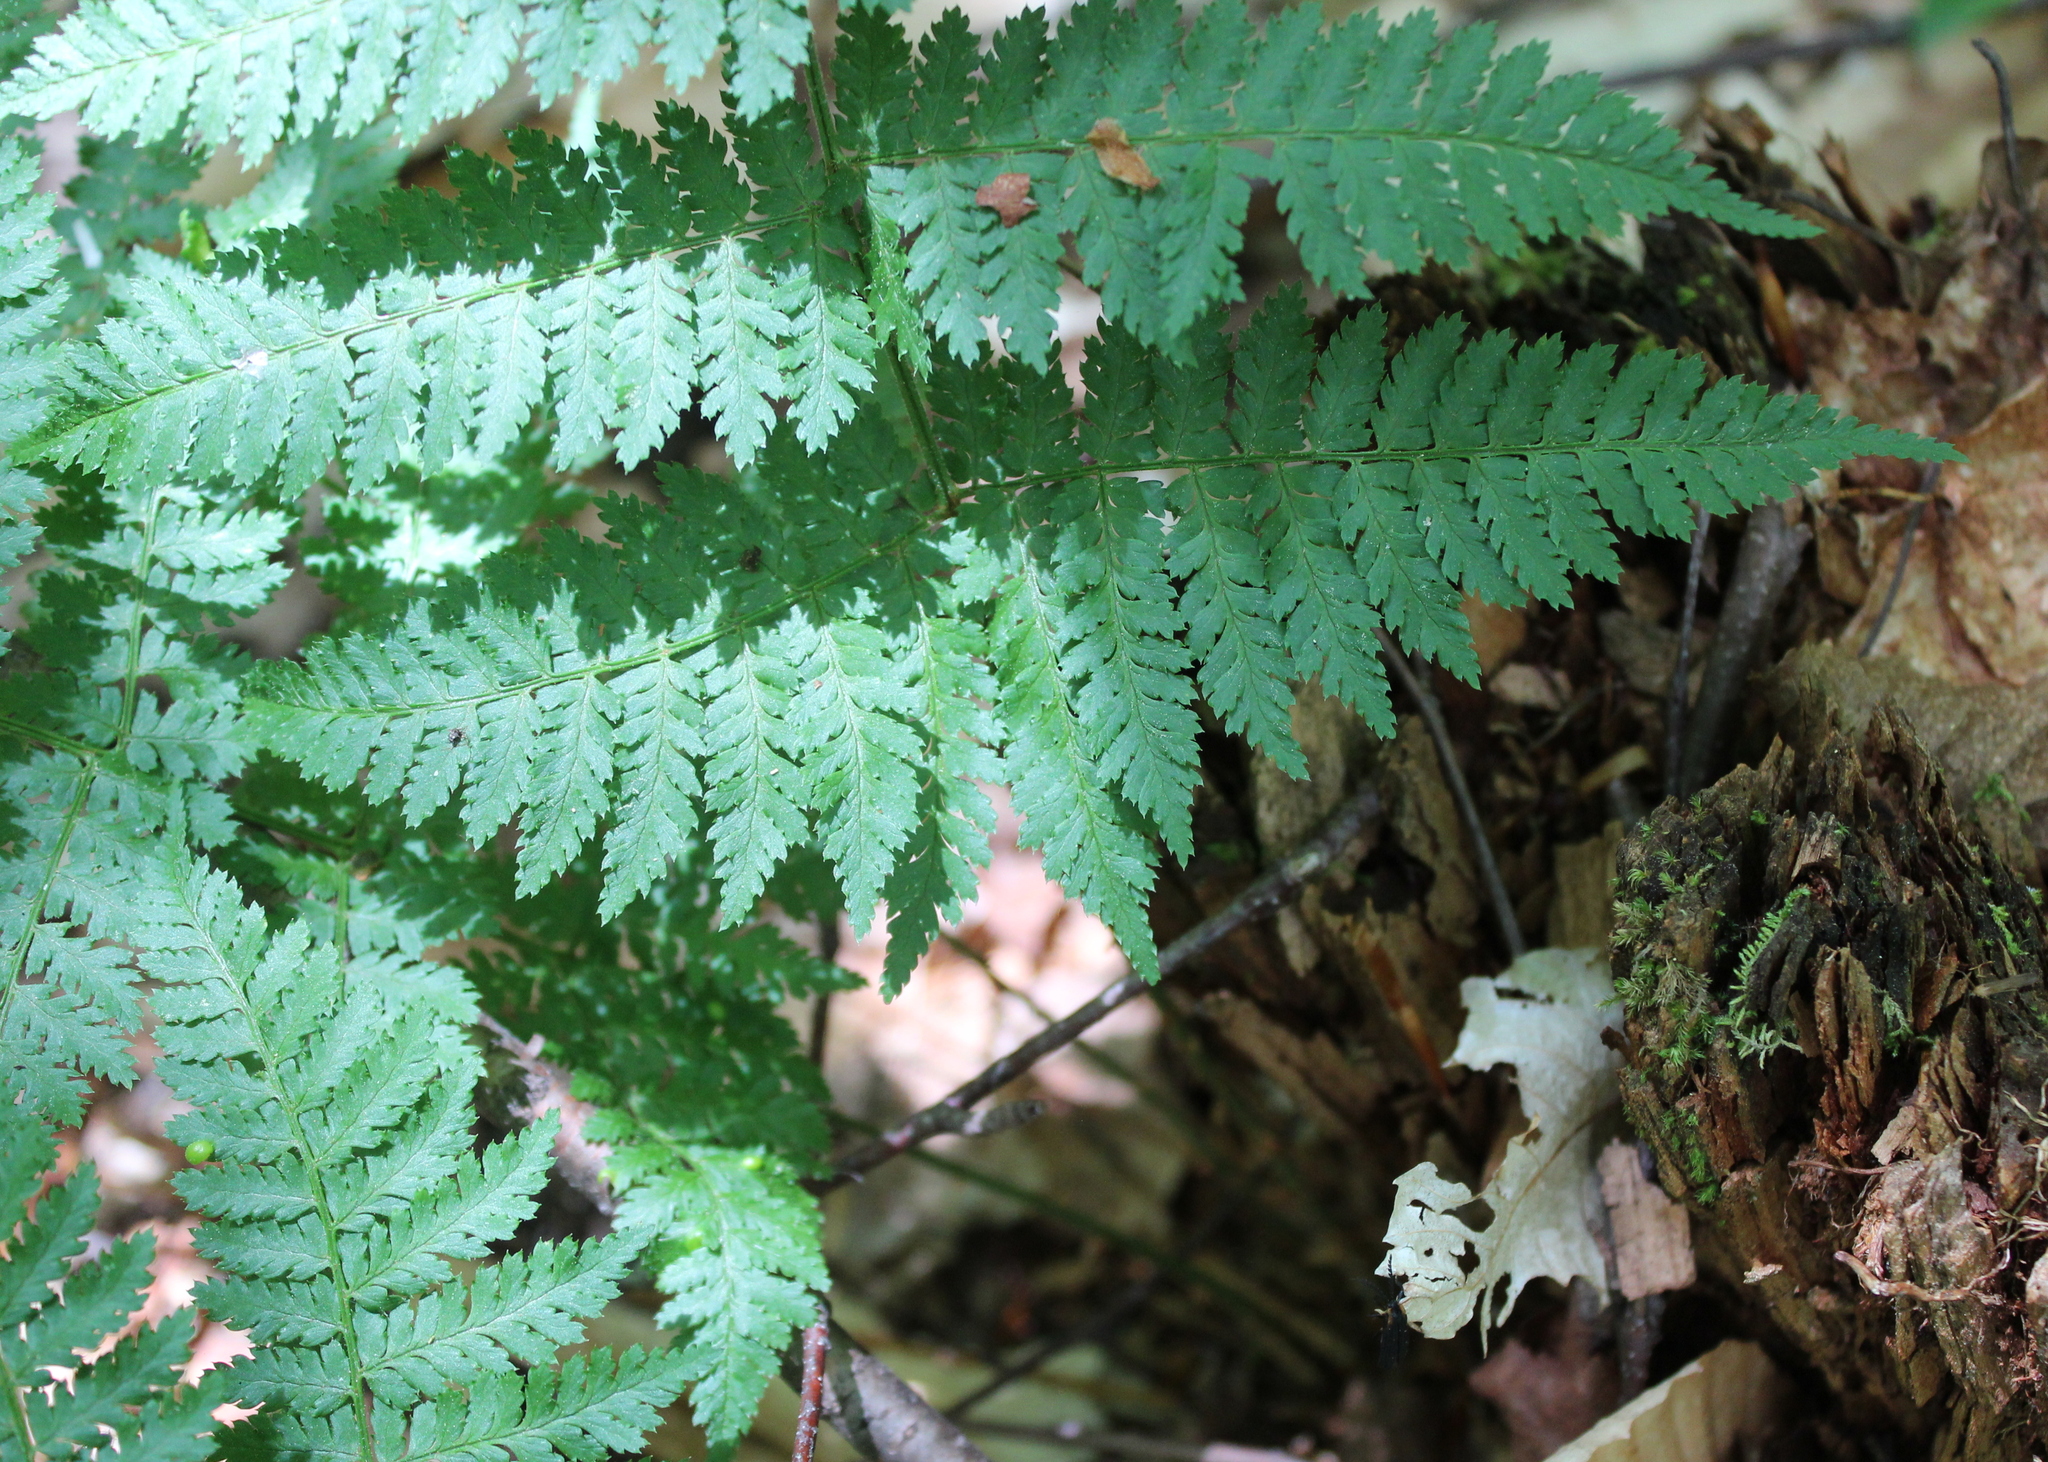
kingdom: Plantae
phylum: Tracheophyta
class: Polypodiopsida
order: Polypodiales
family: Dryopteridaceae
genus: Dryopteris
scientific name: Dryopteris intermedia
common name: Evergreen wood fern
